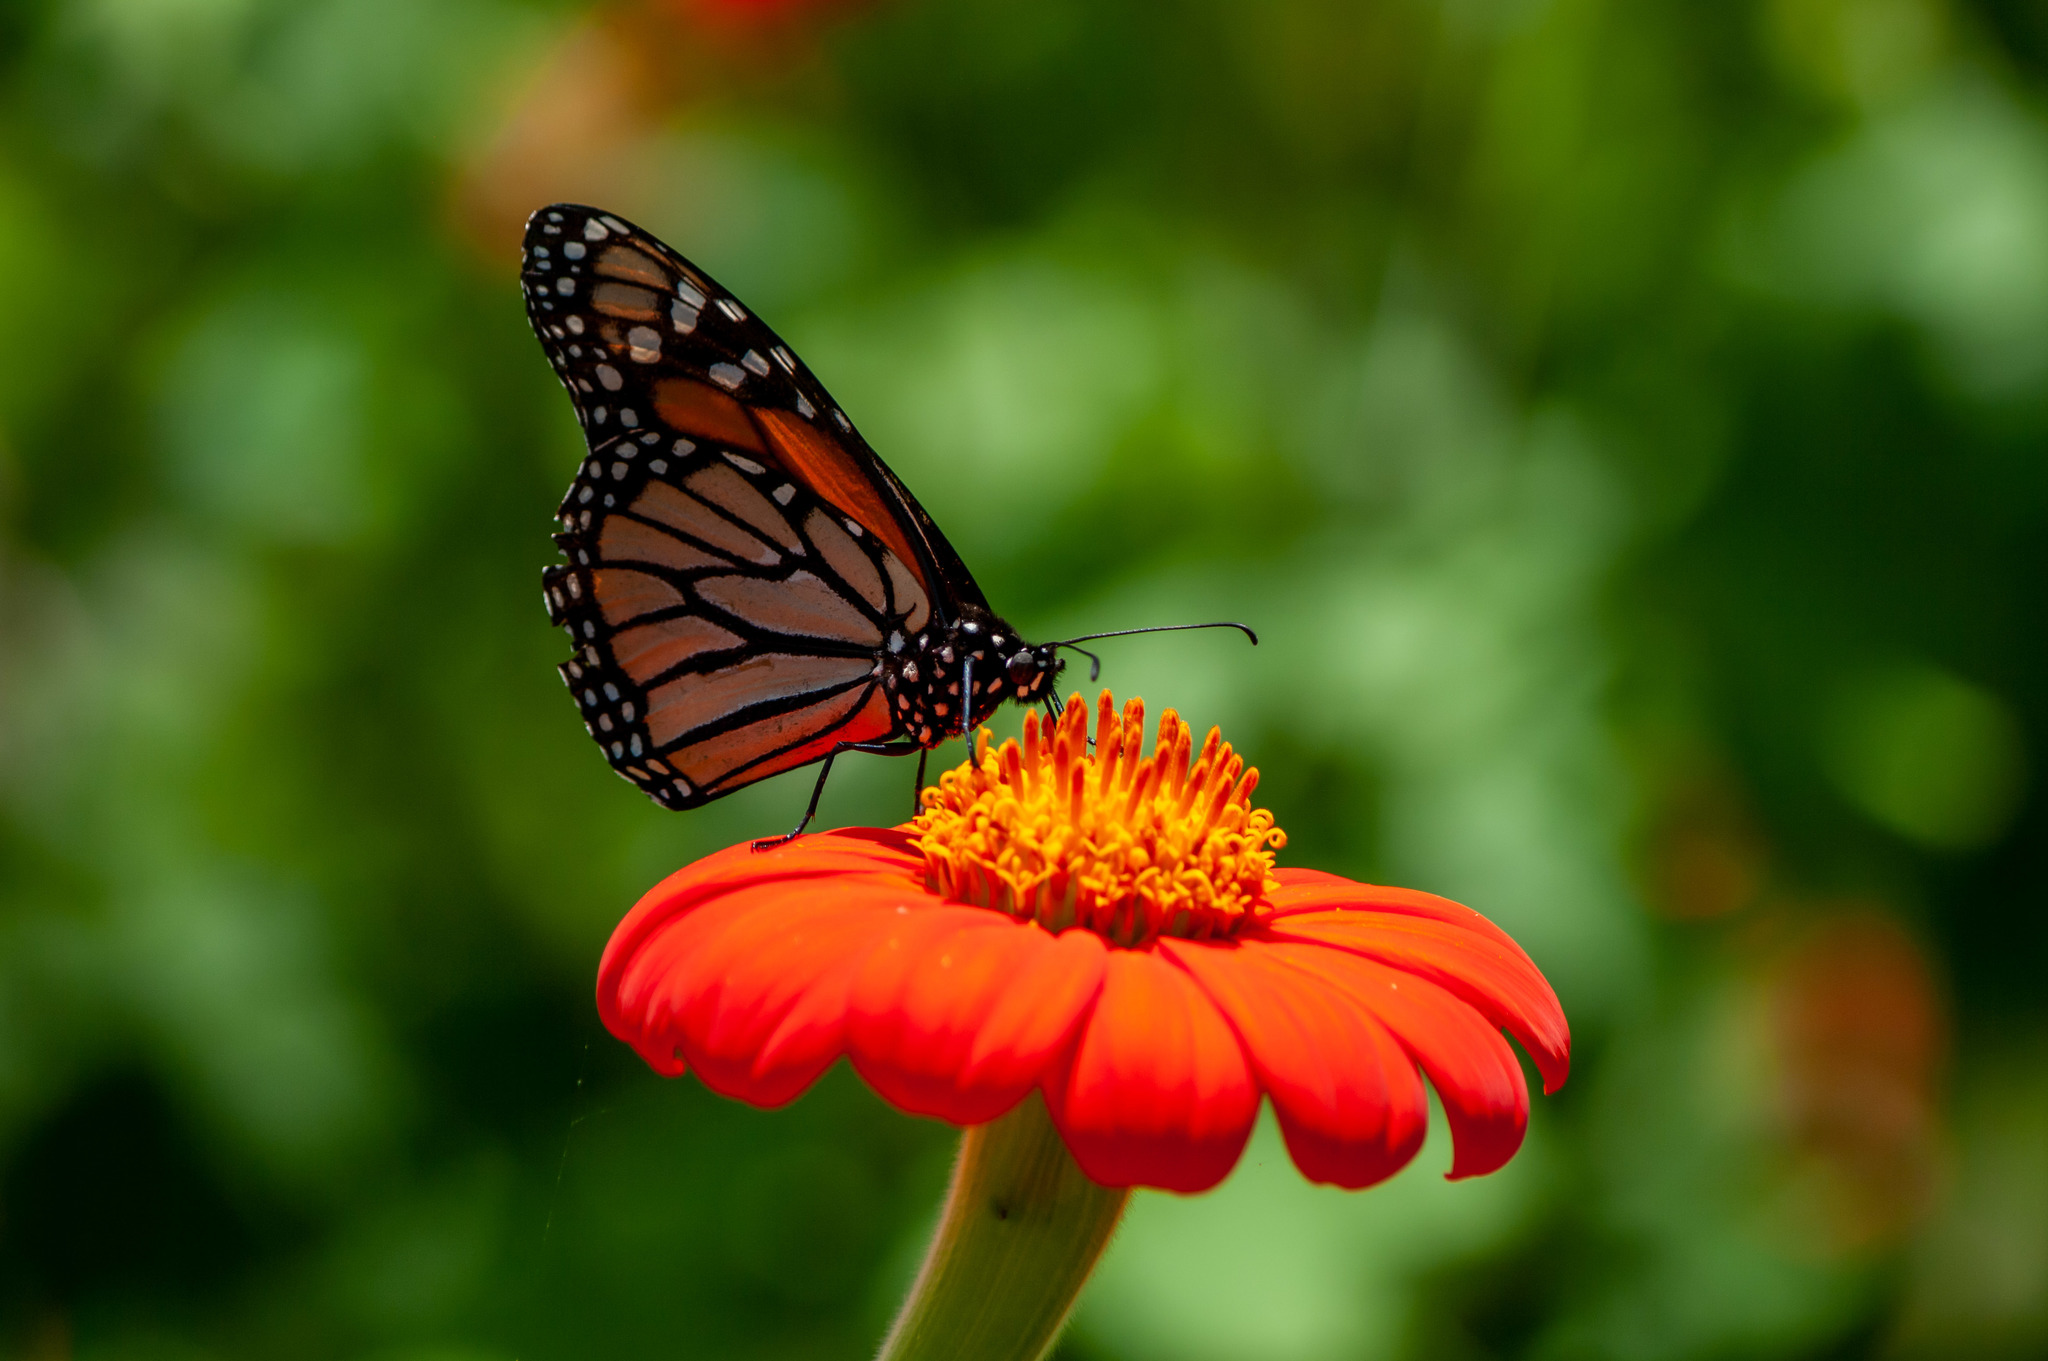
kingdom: Animalia
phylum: Arthropoda
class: Insecta
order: Lepidoptera
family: Nymphalidae
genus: Danaus
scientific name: Danaus plexippus
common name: Monarch
